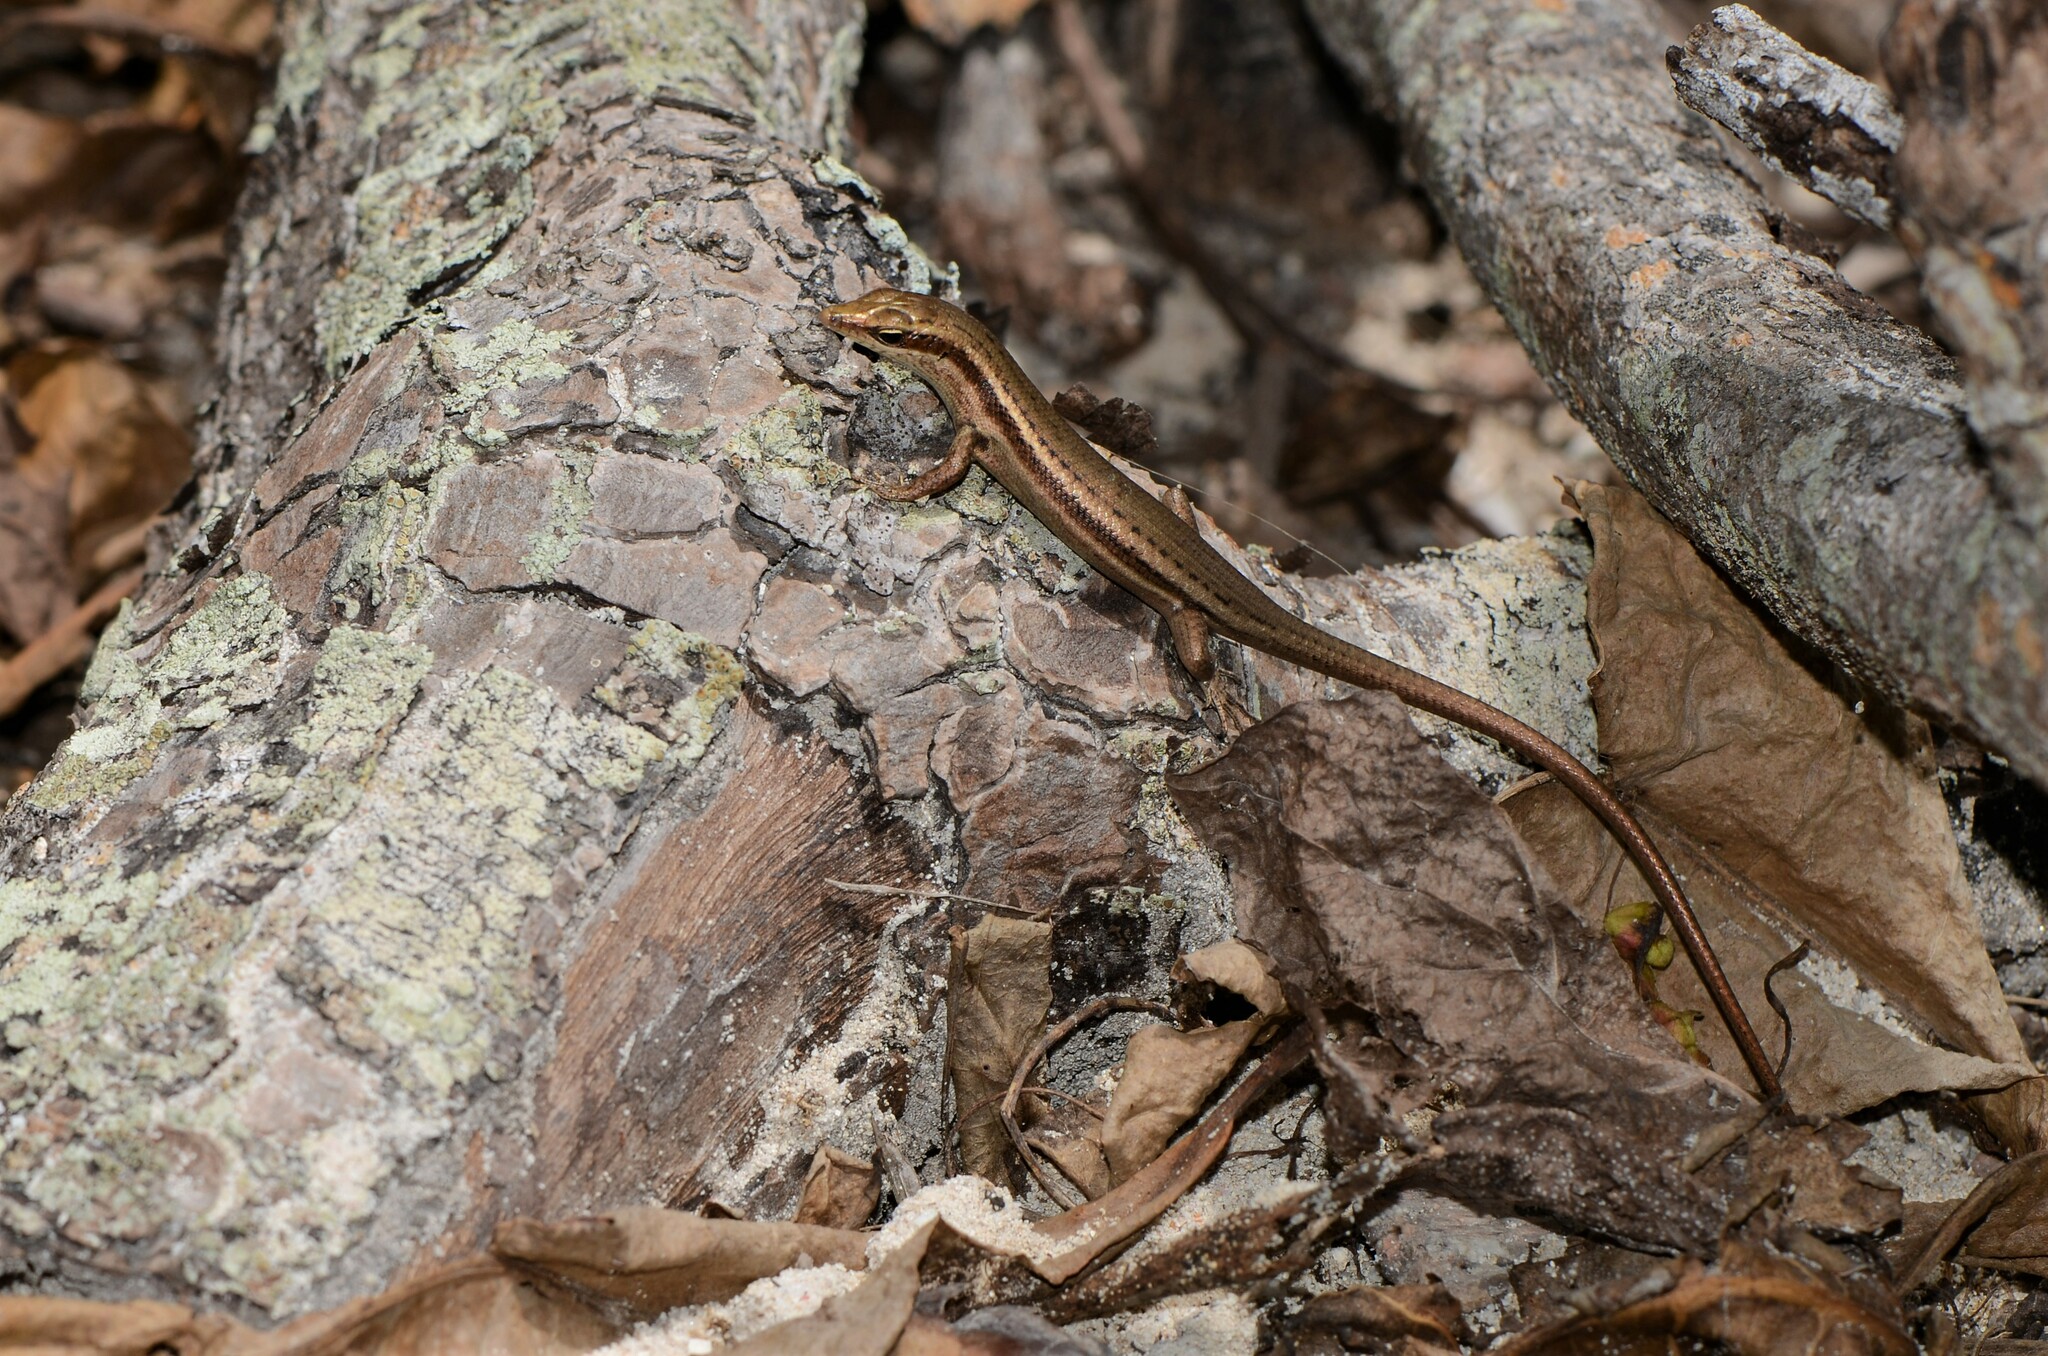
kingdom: Animalia
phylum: Chordata
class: Squamata
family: Scincidae
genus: Trachylepis
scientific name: Trachylepis sechellensis
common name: Seychelles skink
